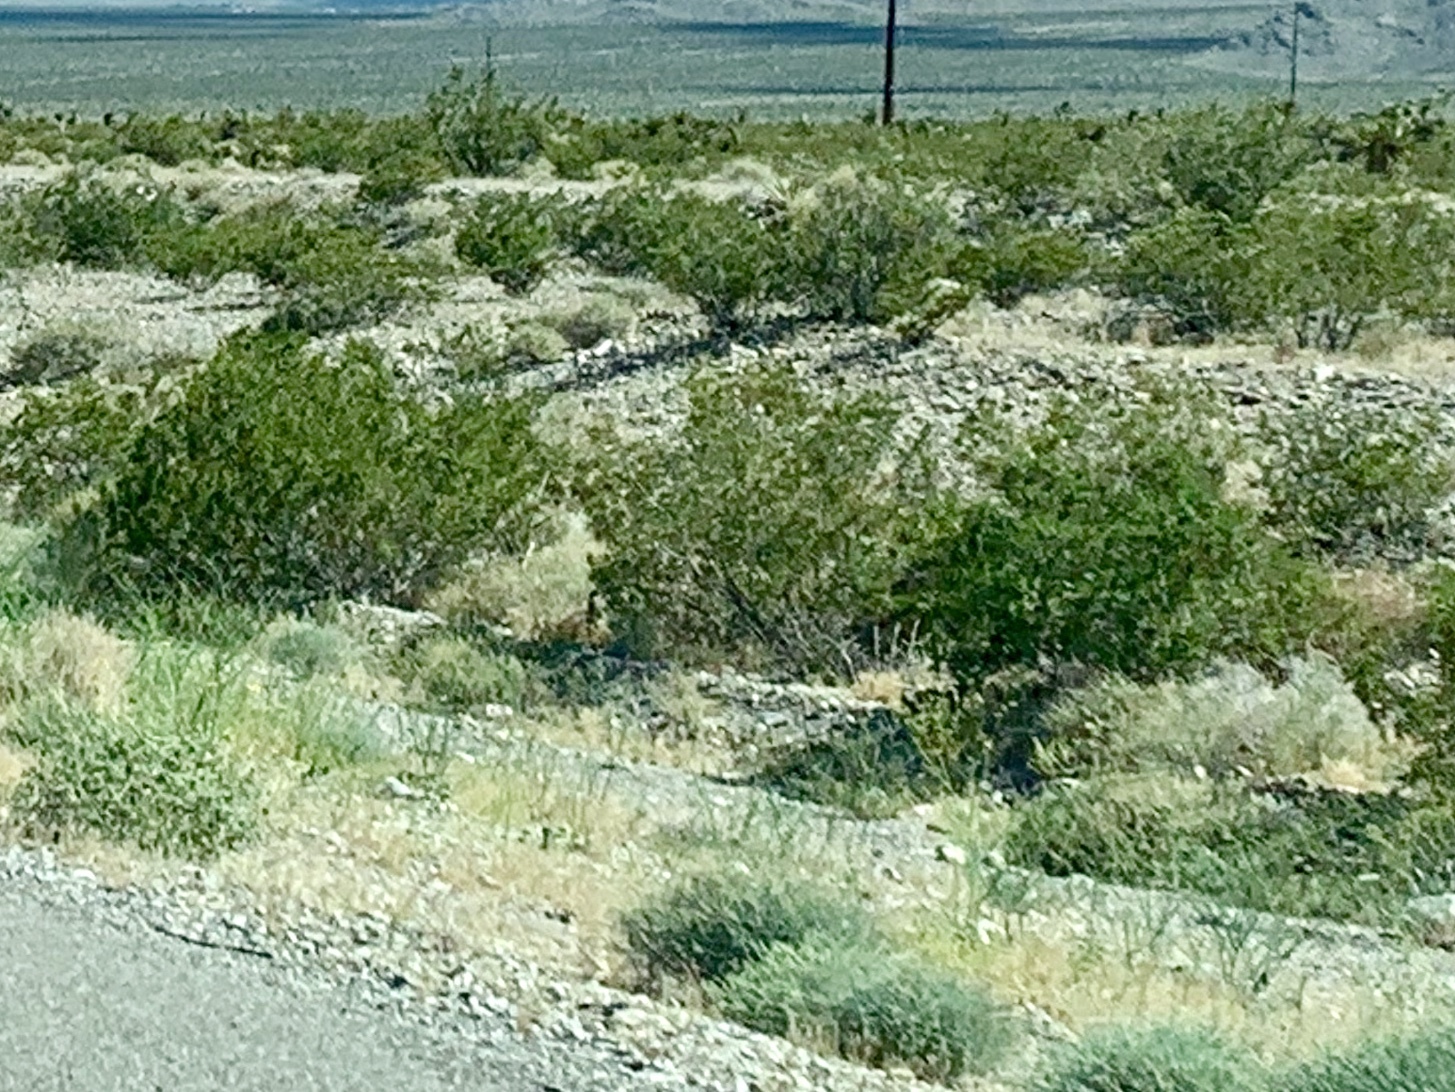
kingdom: Plantae
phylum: Tracheophyta
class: Magnoliopsida
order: Zygophyllales
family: Zygophyllaceae
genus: Larrea
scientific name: Larrea tridentata
